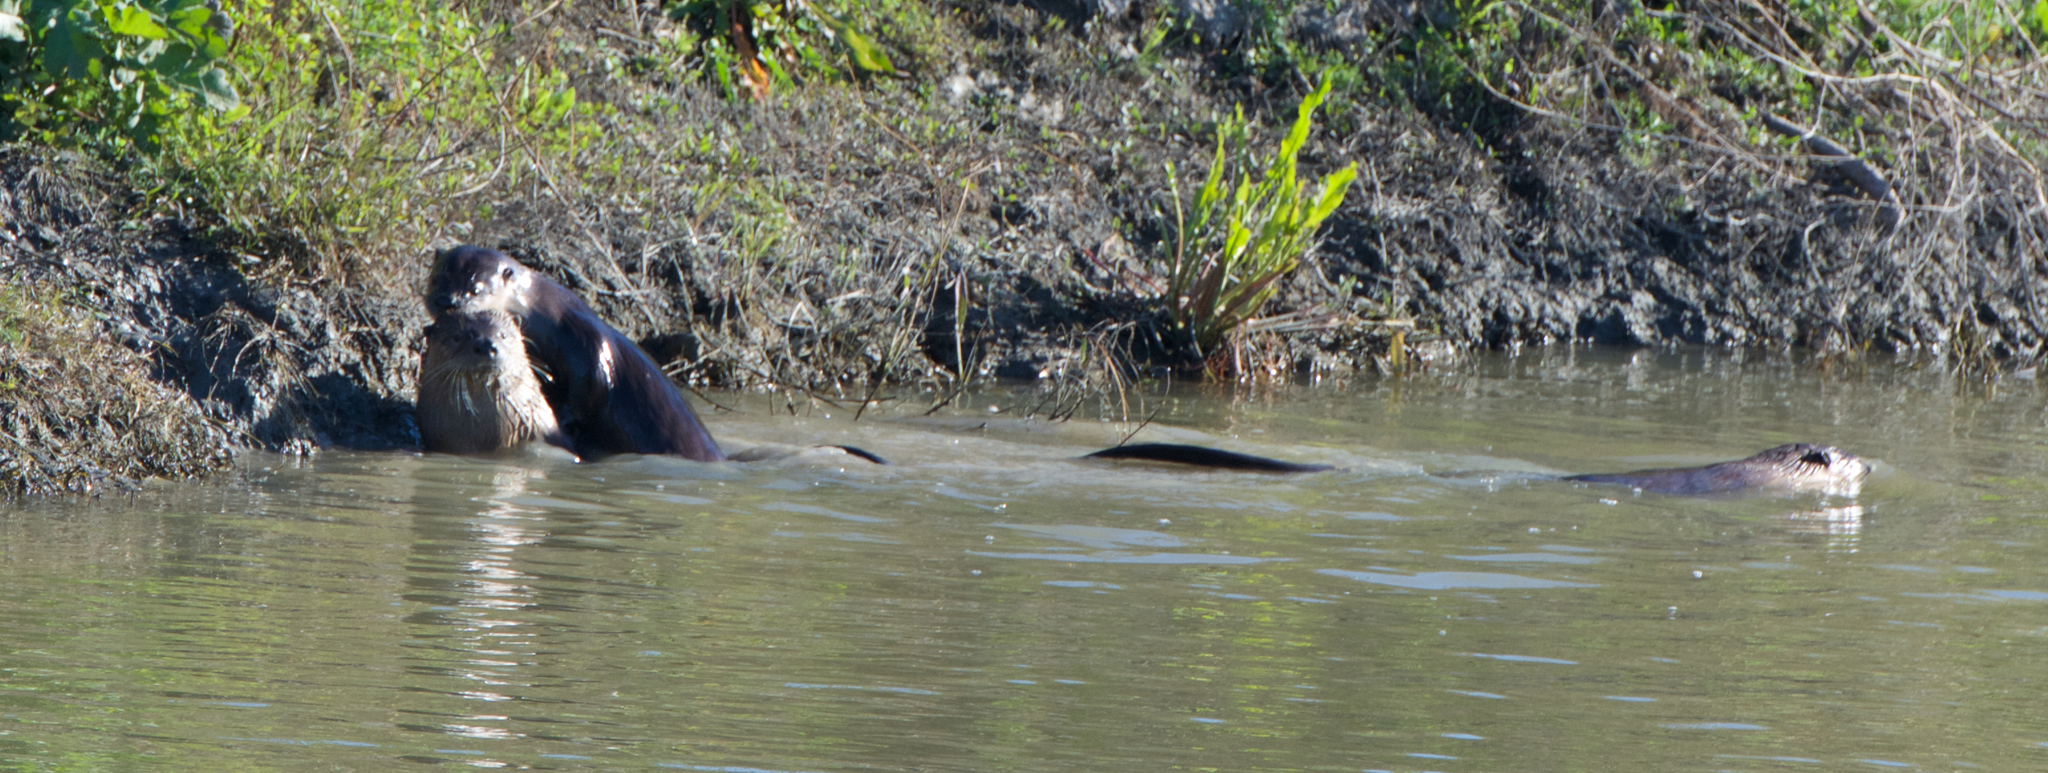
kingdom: Animalia
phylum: Chordata
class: Mammalia
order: Carnivora
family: Mustelidae
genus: Lontra
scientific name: Lontra canadensis
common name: North american river otter
